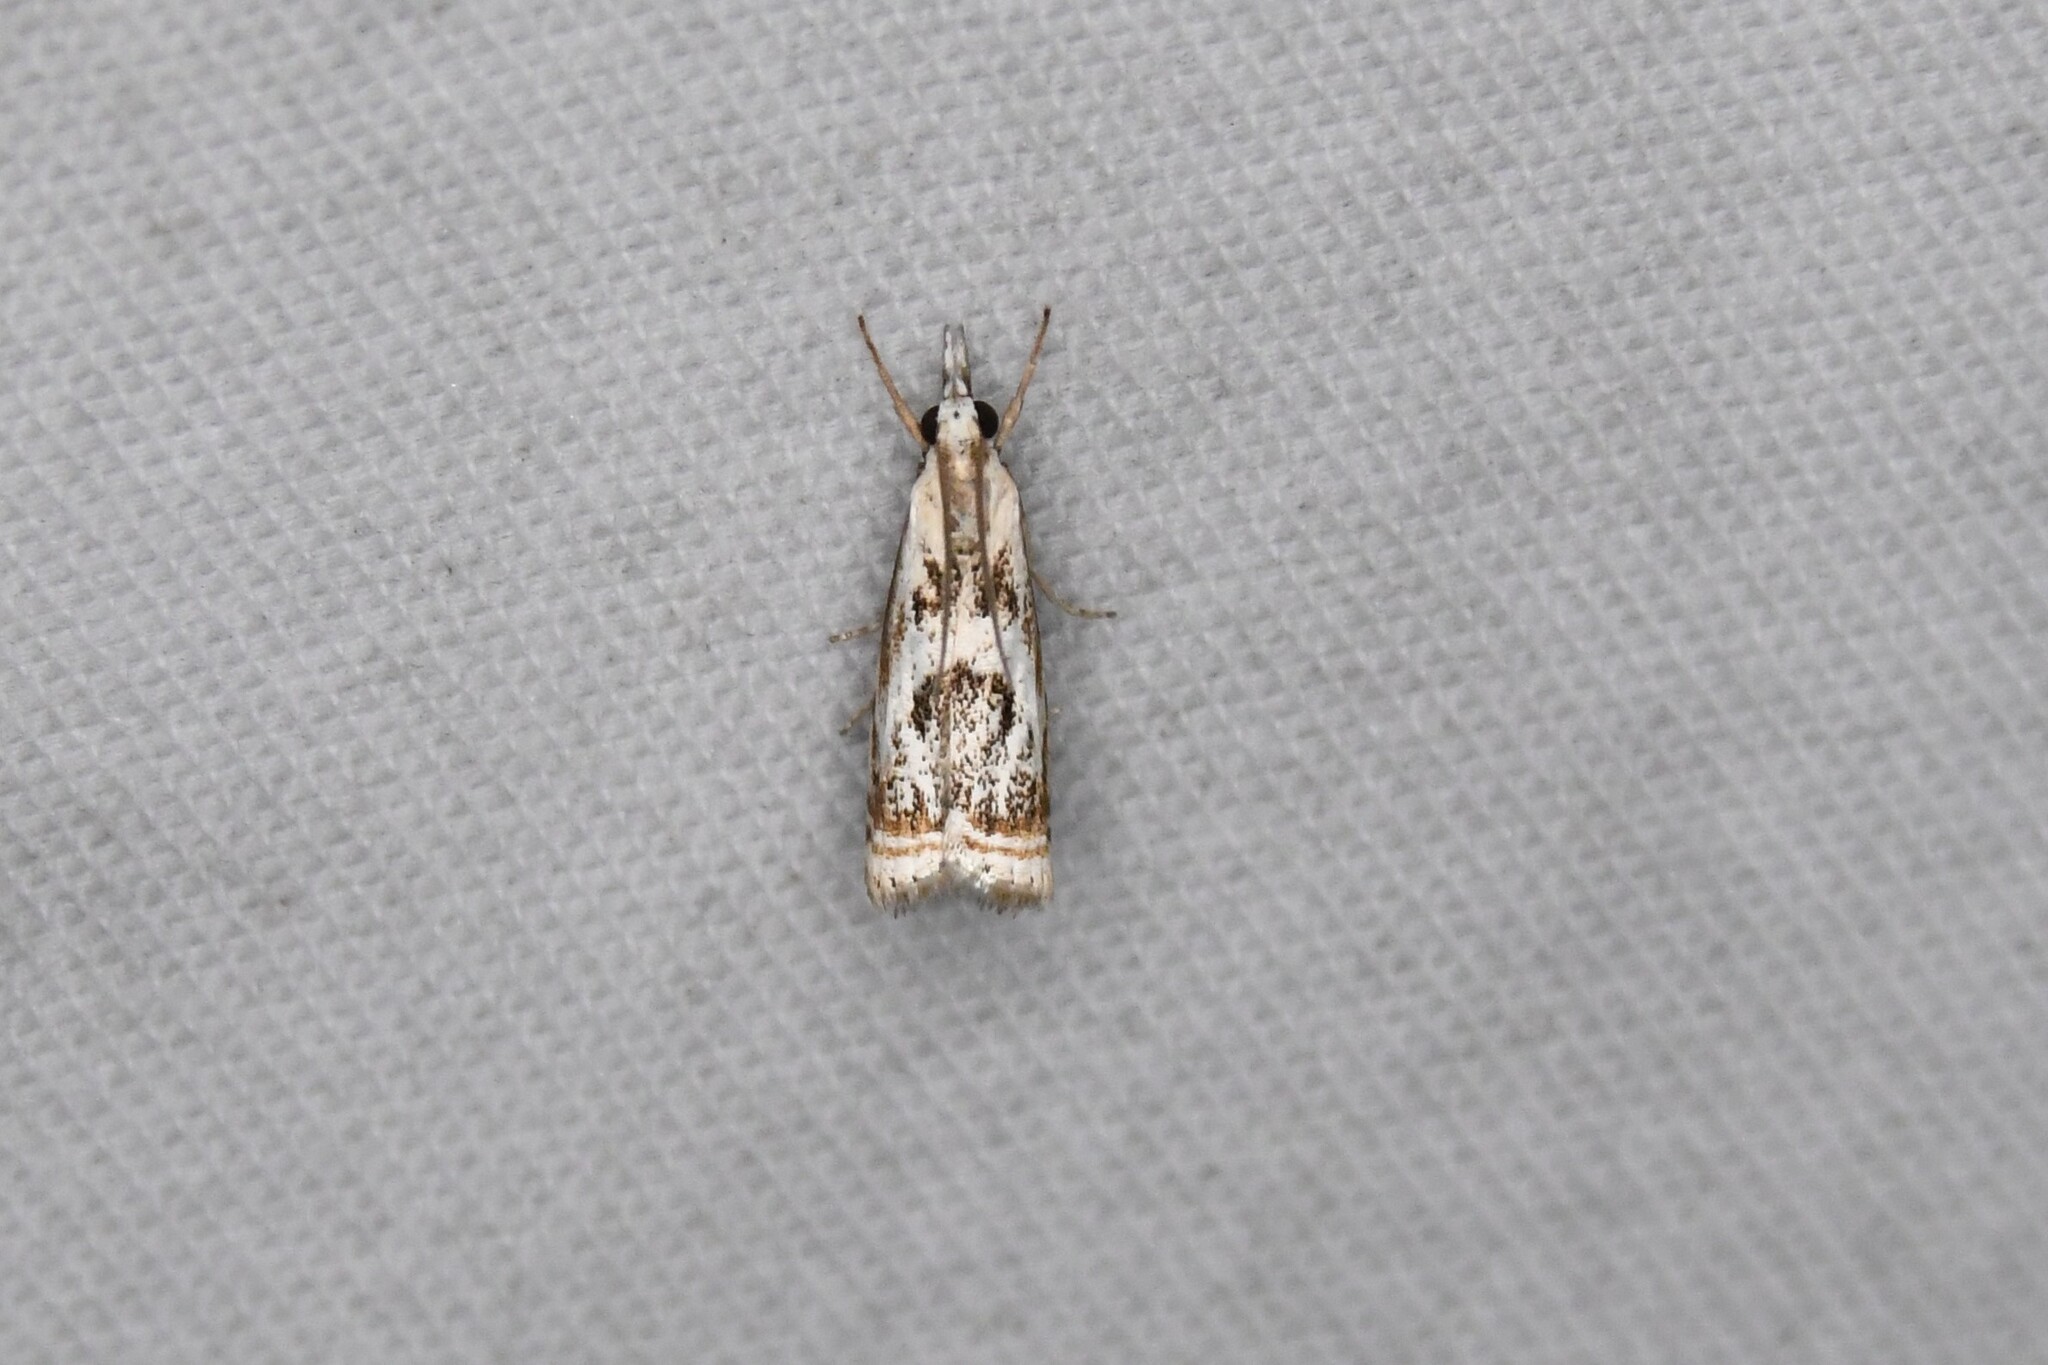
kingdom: Animalia
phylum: Arthropoda
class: Insecta
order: Lepidoptera
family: Crambidae
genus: Microcrambus
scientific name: Microcrambus elegans
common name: Elegant grass-veneer
